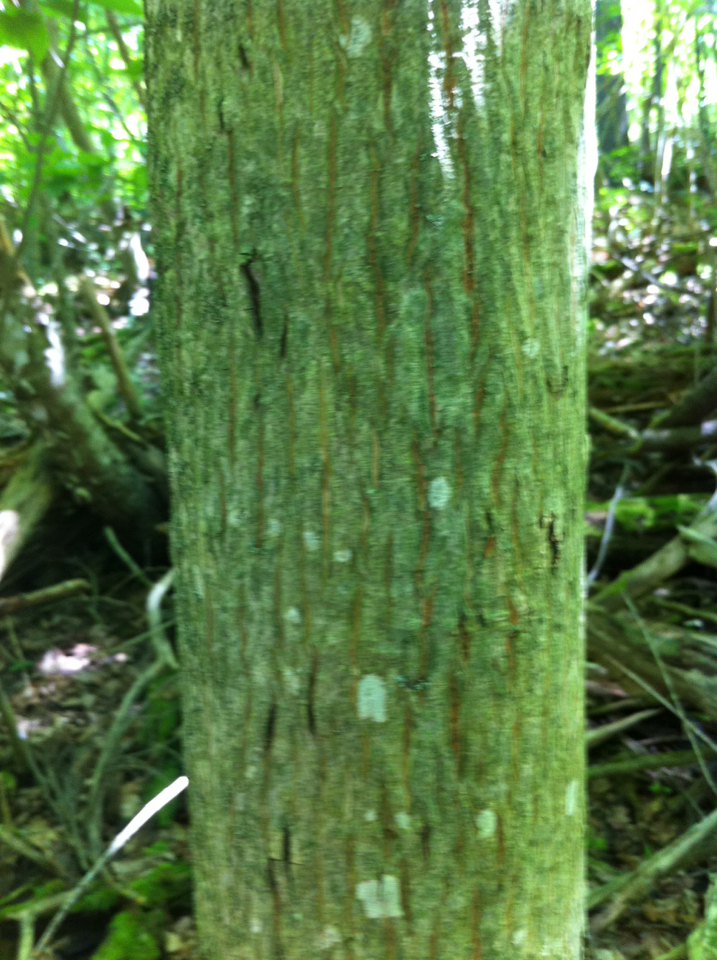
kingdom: Plantae
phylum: Tracheophyta
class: Magnoliopsida
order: Fagales
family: Juglandaceae
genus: Carya
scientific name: Carya cordiformis
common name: Bitternut hickory
